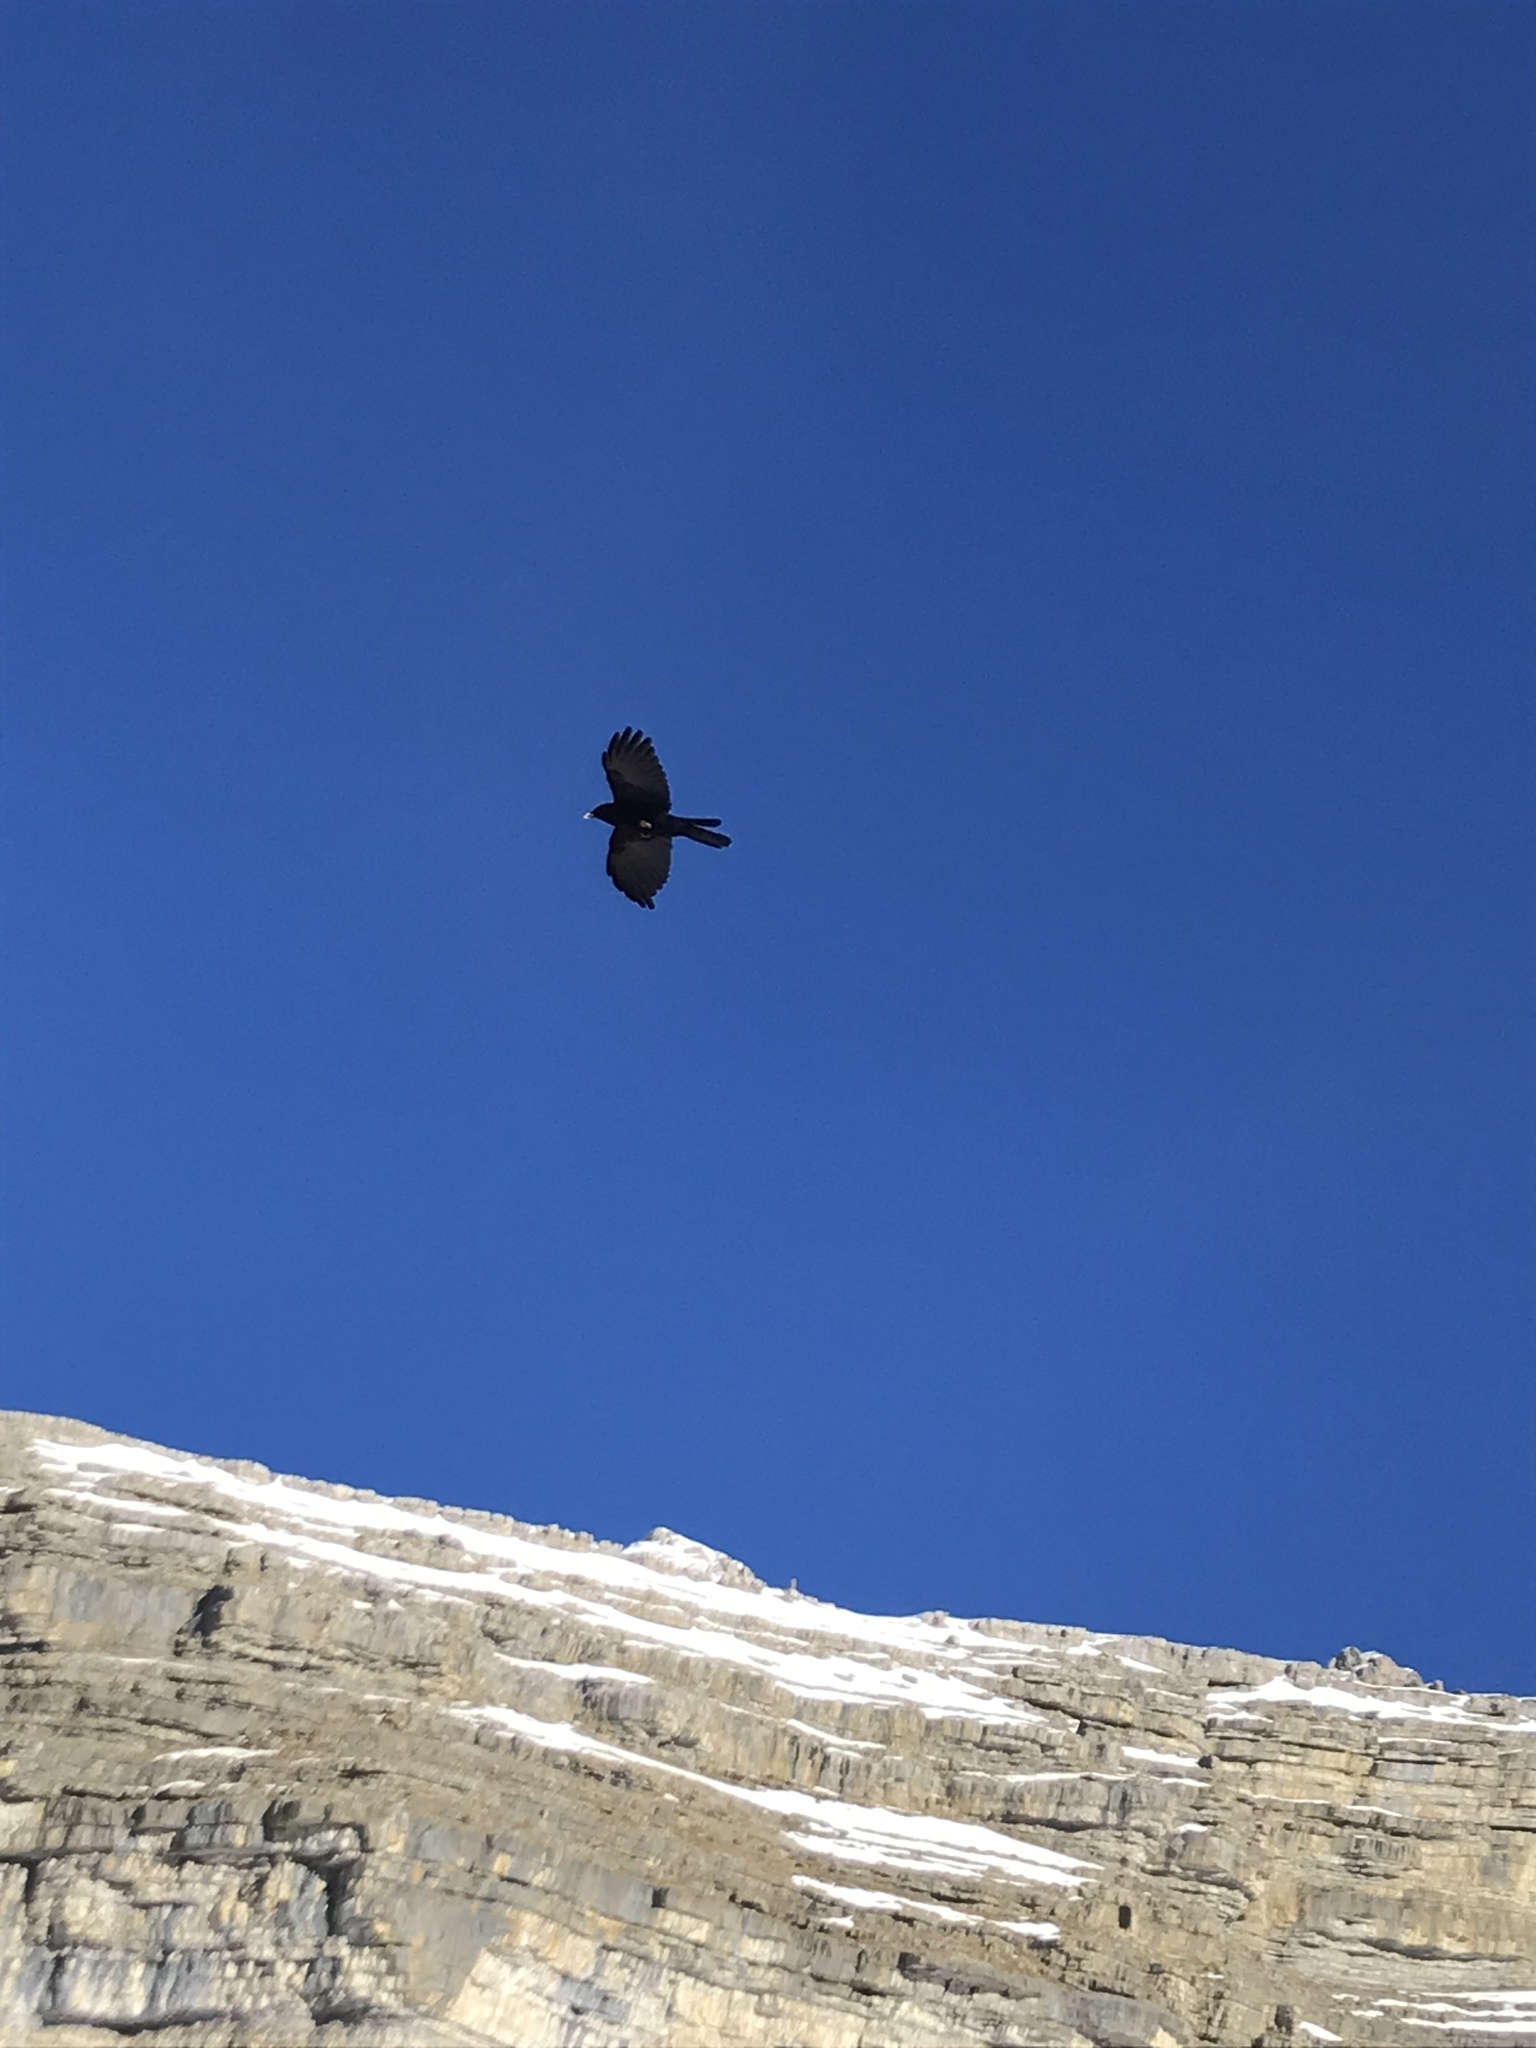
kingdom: Animalia
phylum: Chordata
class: Aves
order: Passeriformes
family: Corvidae
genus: Pyrrhocorax
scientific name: Pyrrhocorax graculus
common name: Alpine chough
